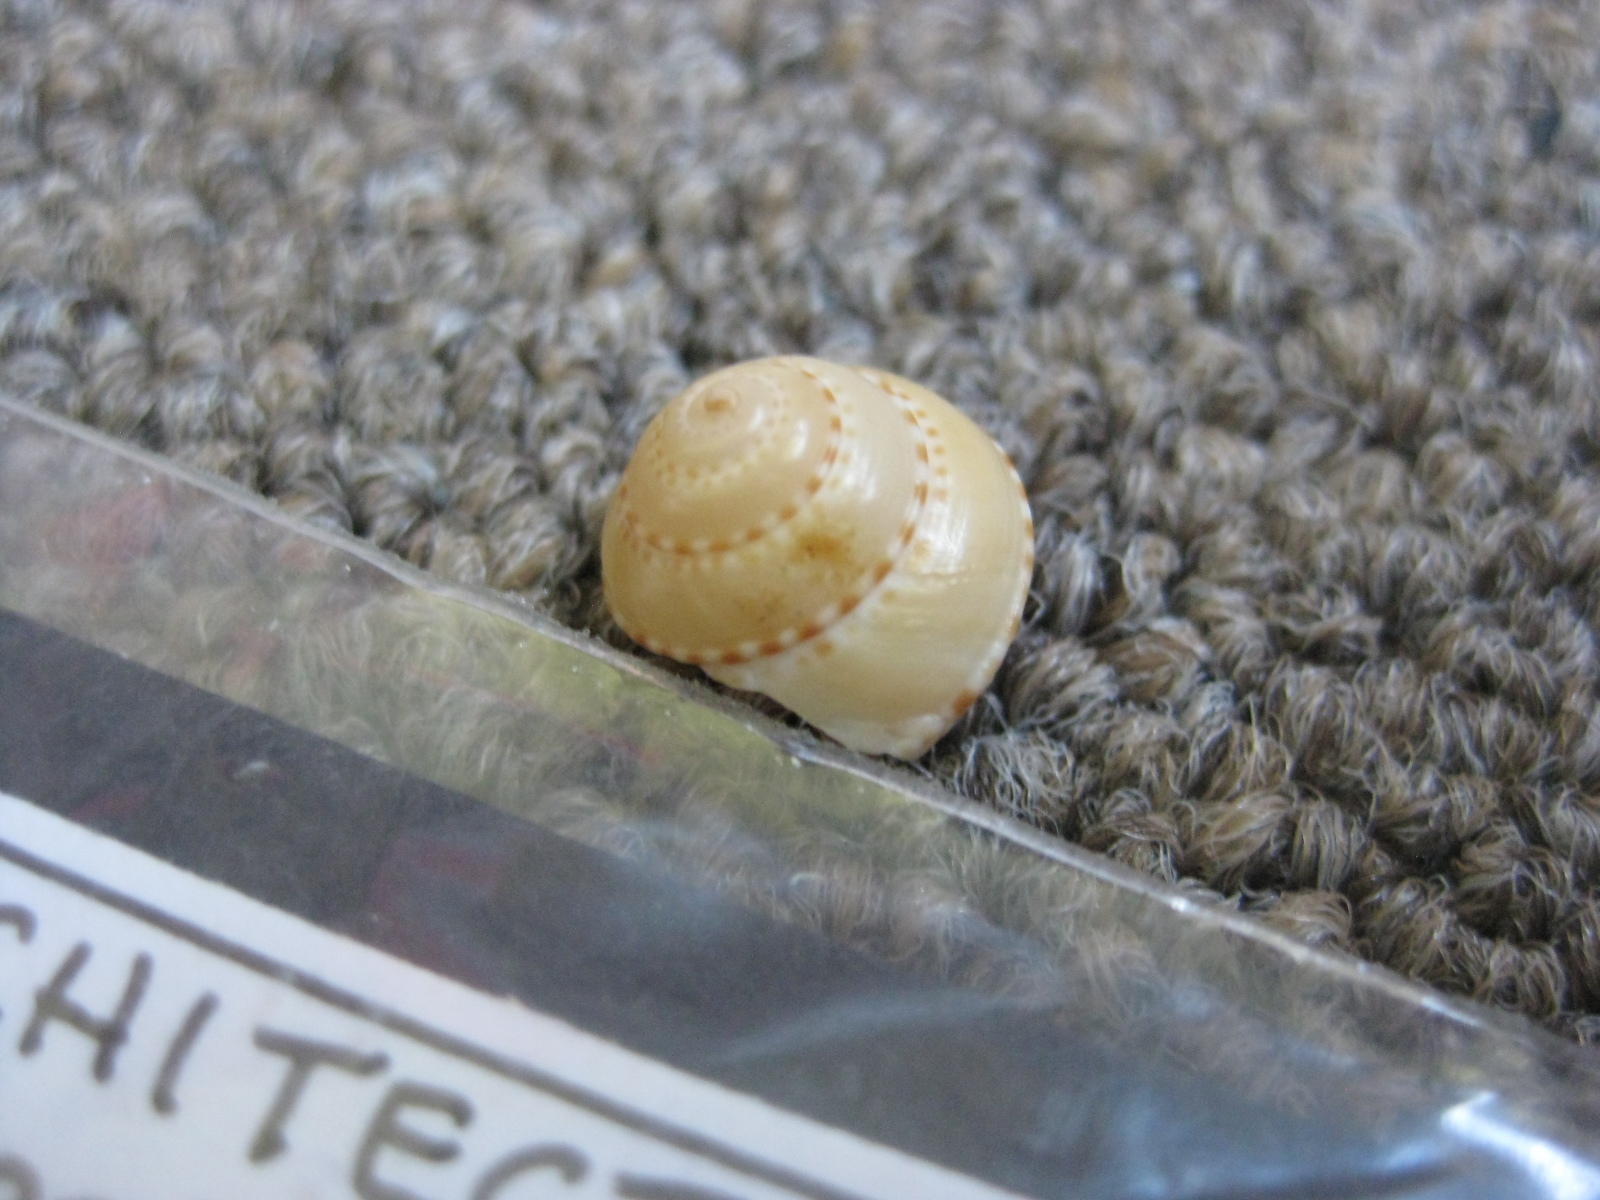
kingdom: Animalia
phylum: Mollusca
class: Gastropoda
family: Architectonicidae
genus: Philippia
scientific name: Philippia lutea
